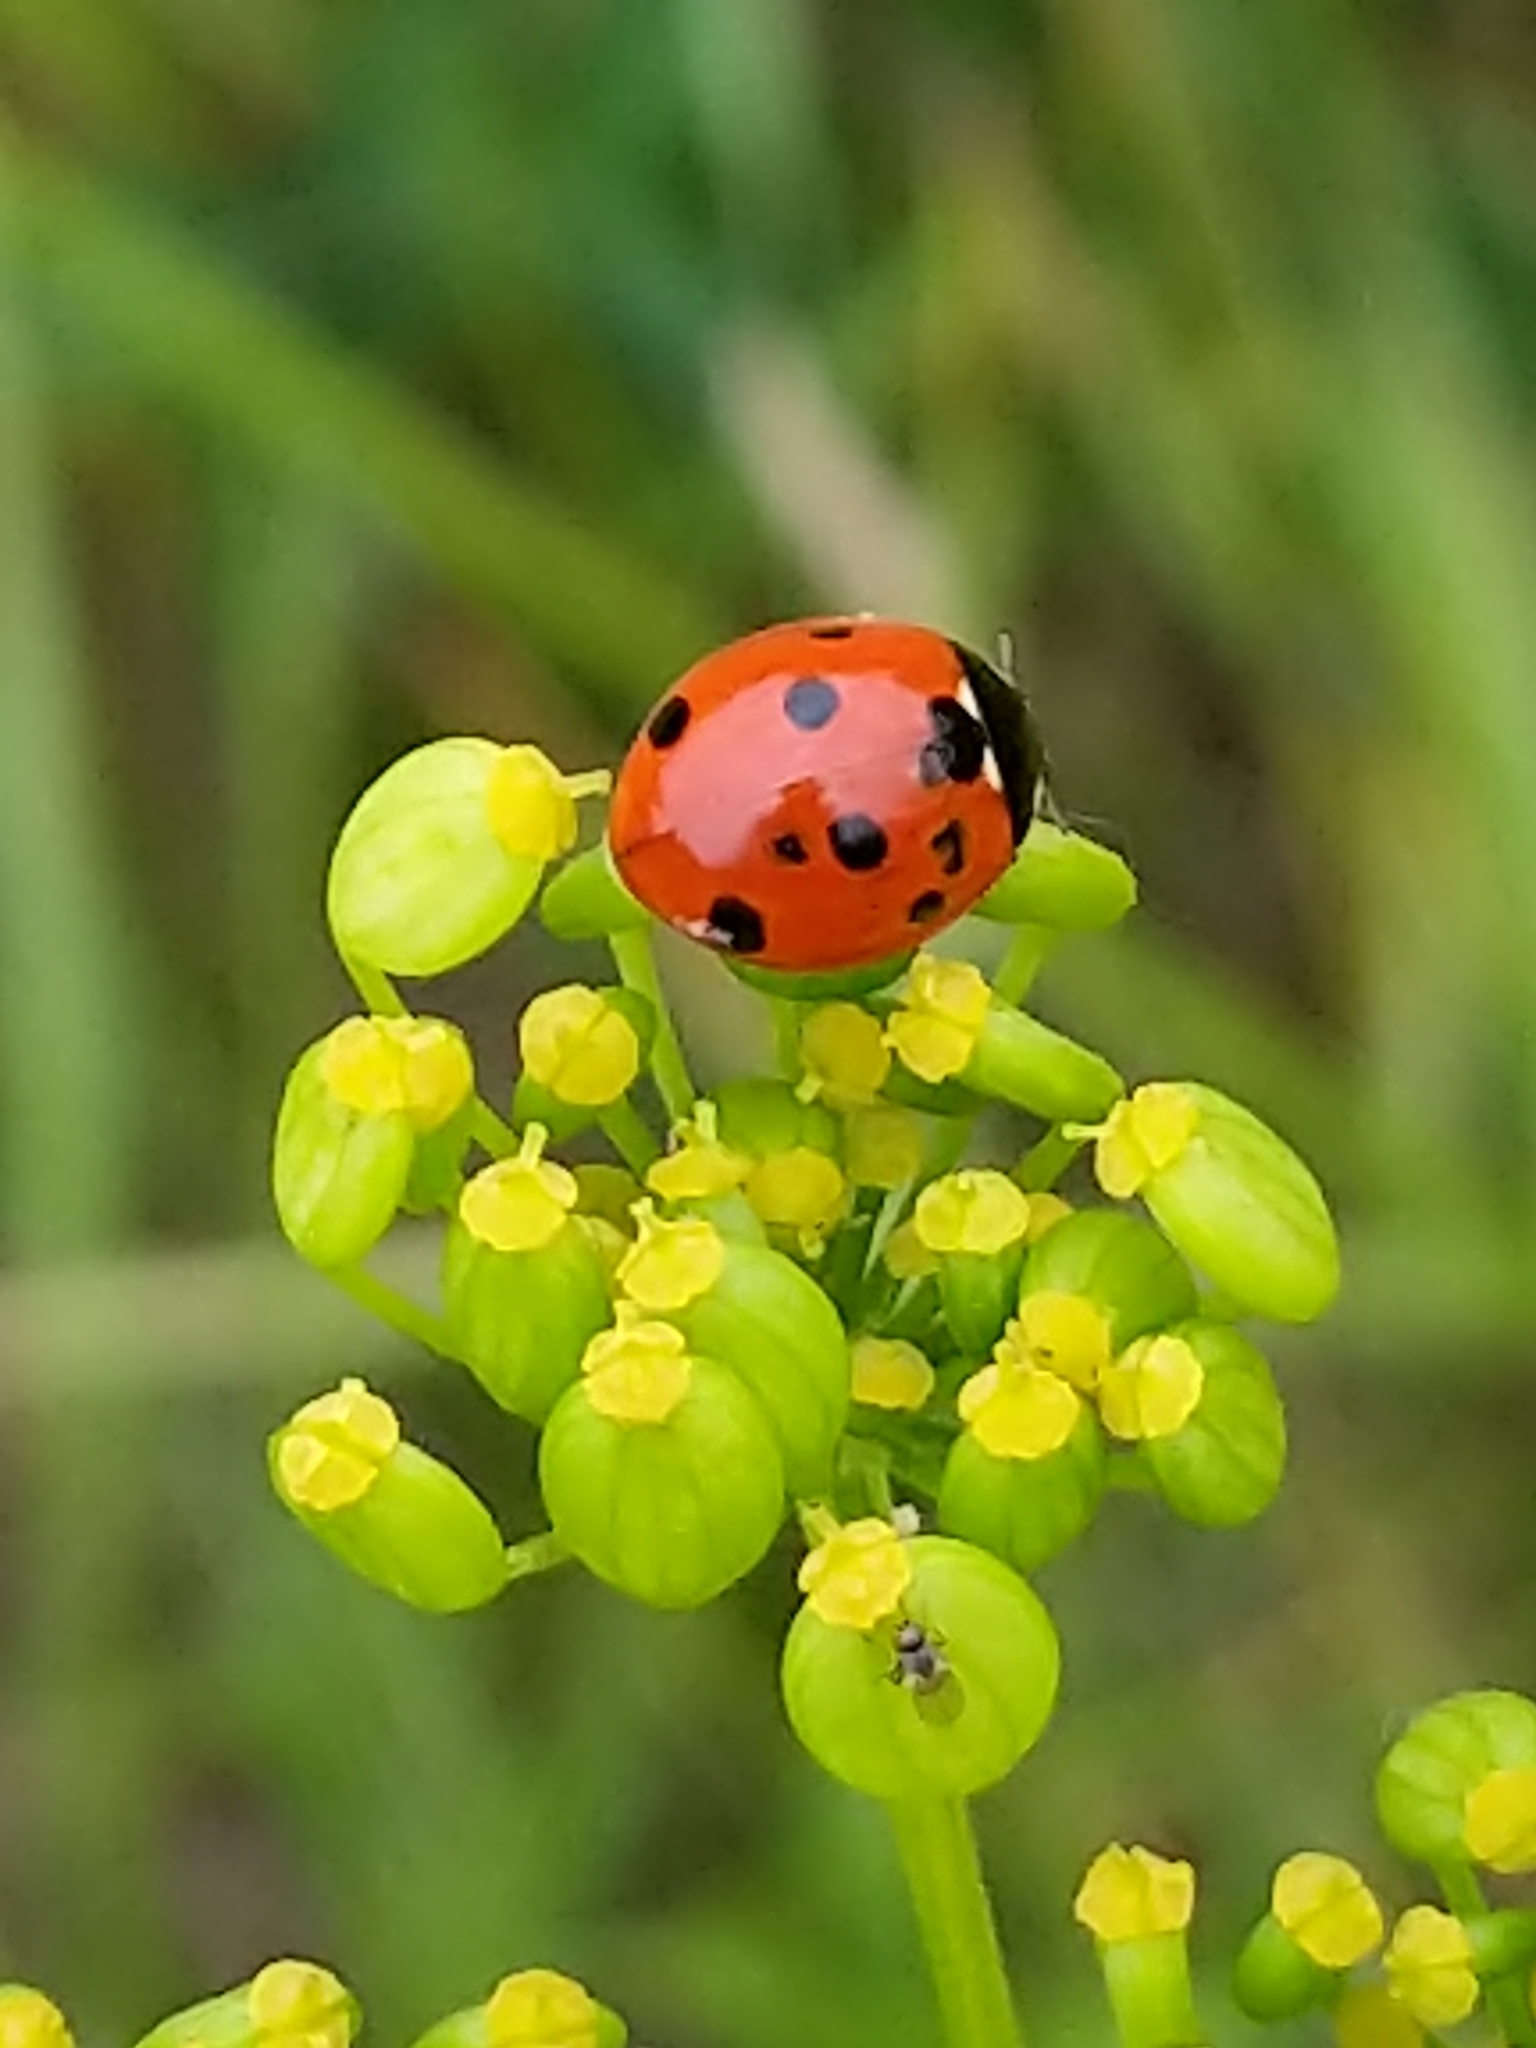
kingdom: Animalia
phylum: Arthropoda
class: Insecta
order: Coleoptera
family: Coccinellidae
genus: Coccinella
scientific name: Coccinella septempunctata
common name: Sevenspotted lady beetle
